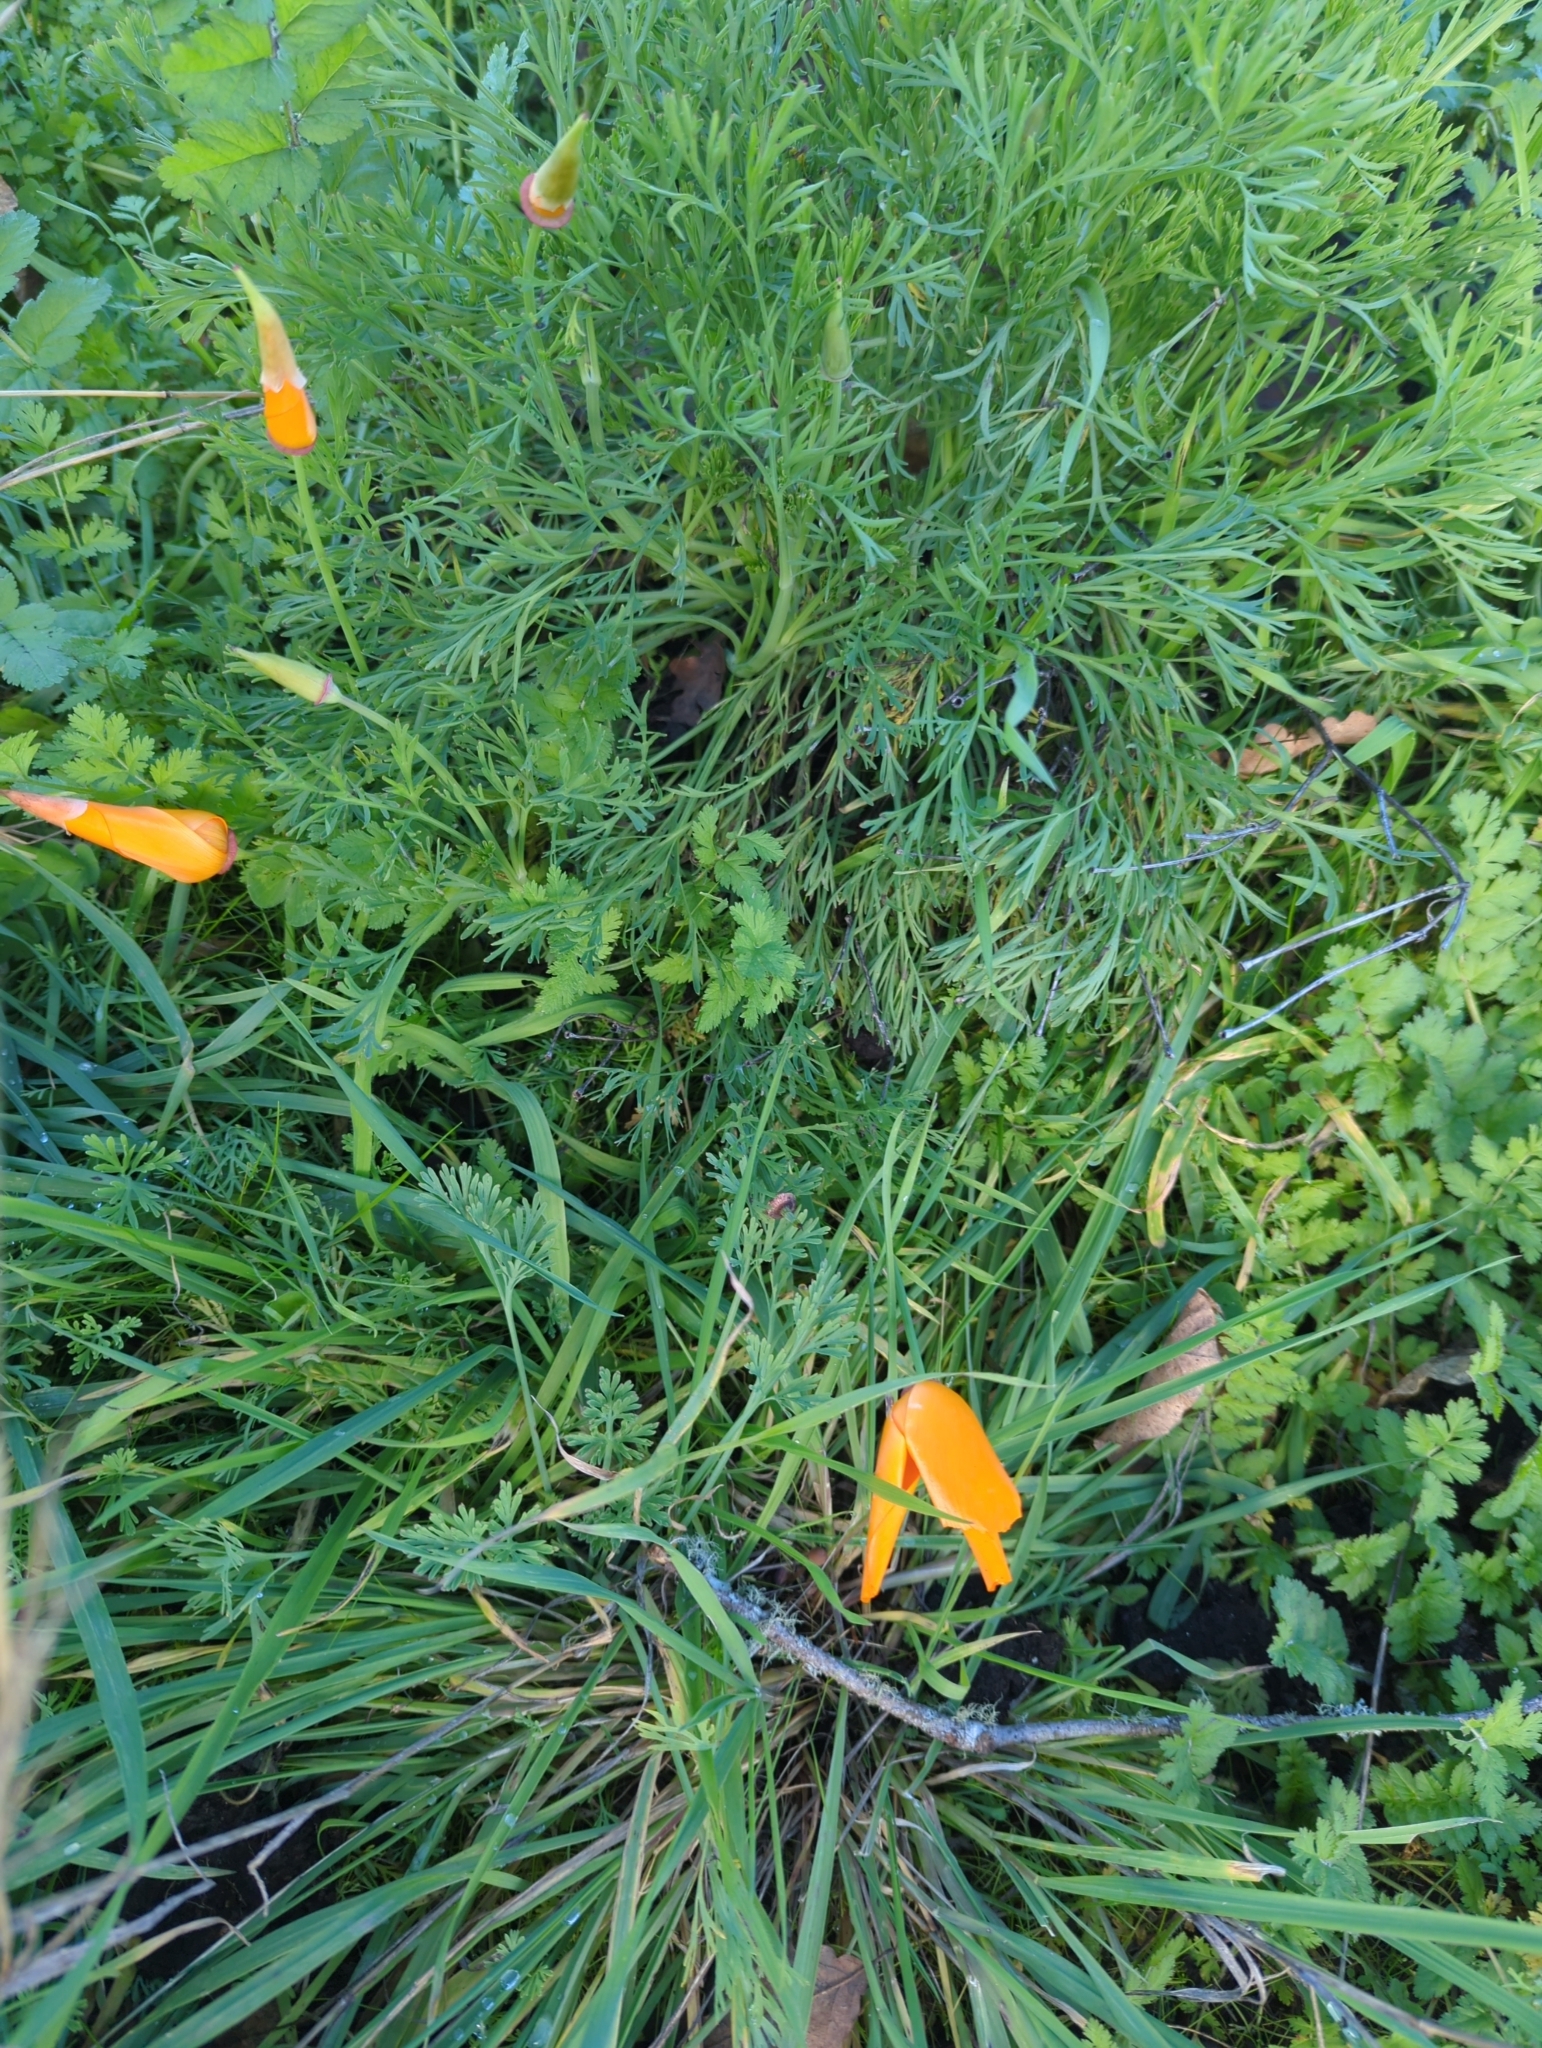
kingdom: Plantae
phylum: Tracheophyta
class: Magnoliopsida
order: Ranunculales
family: Papaveraceae
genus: Eschscholzia
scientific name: Eschscholzia californica
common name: California poppy
